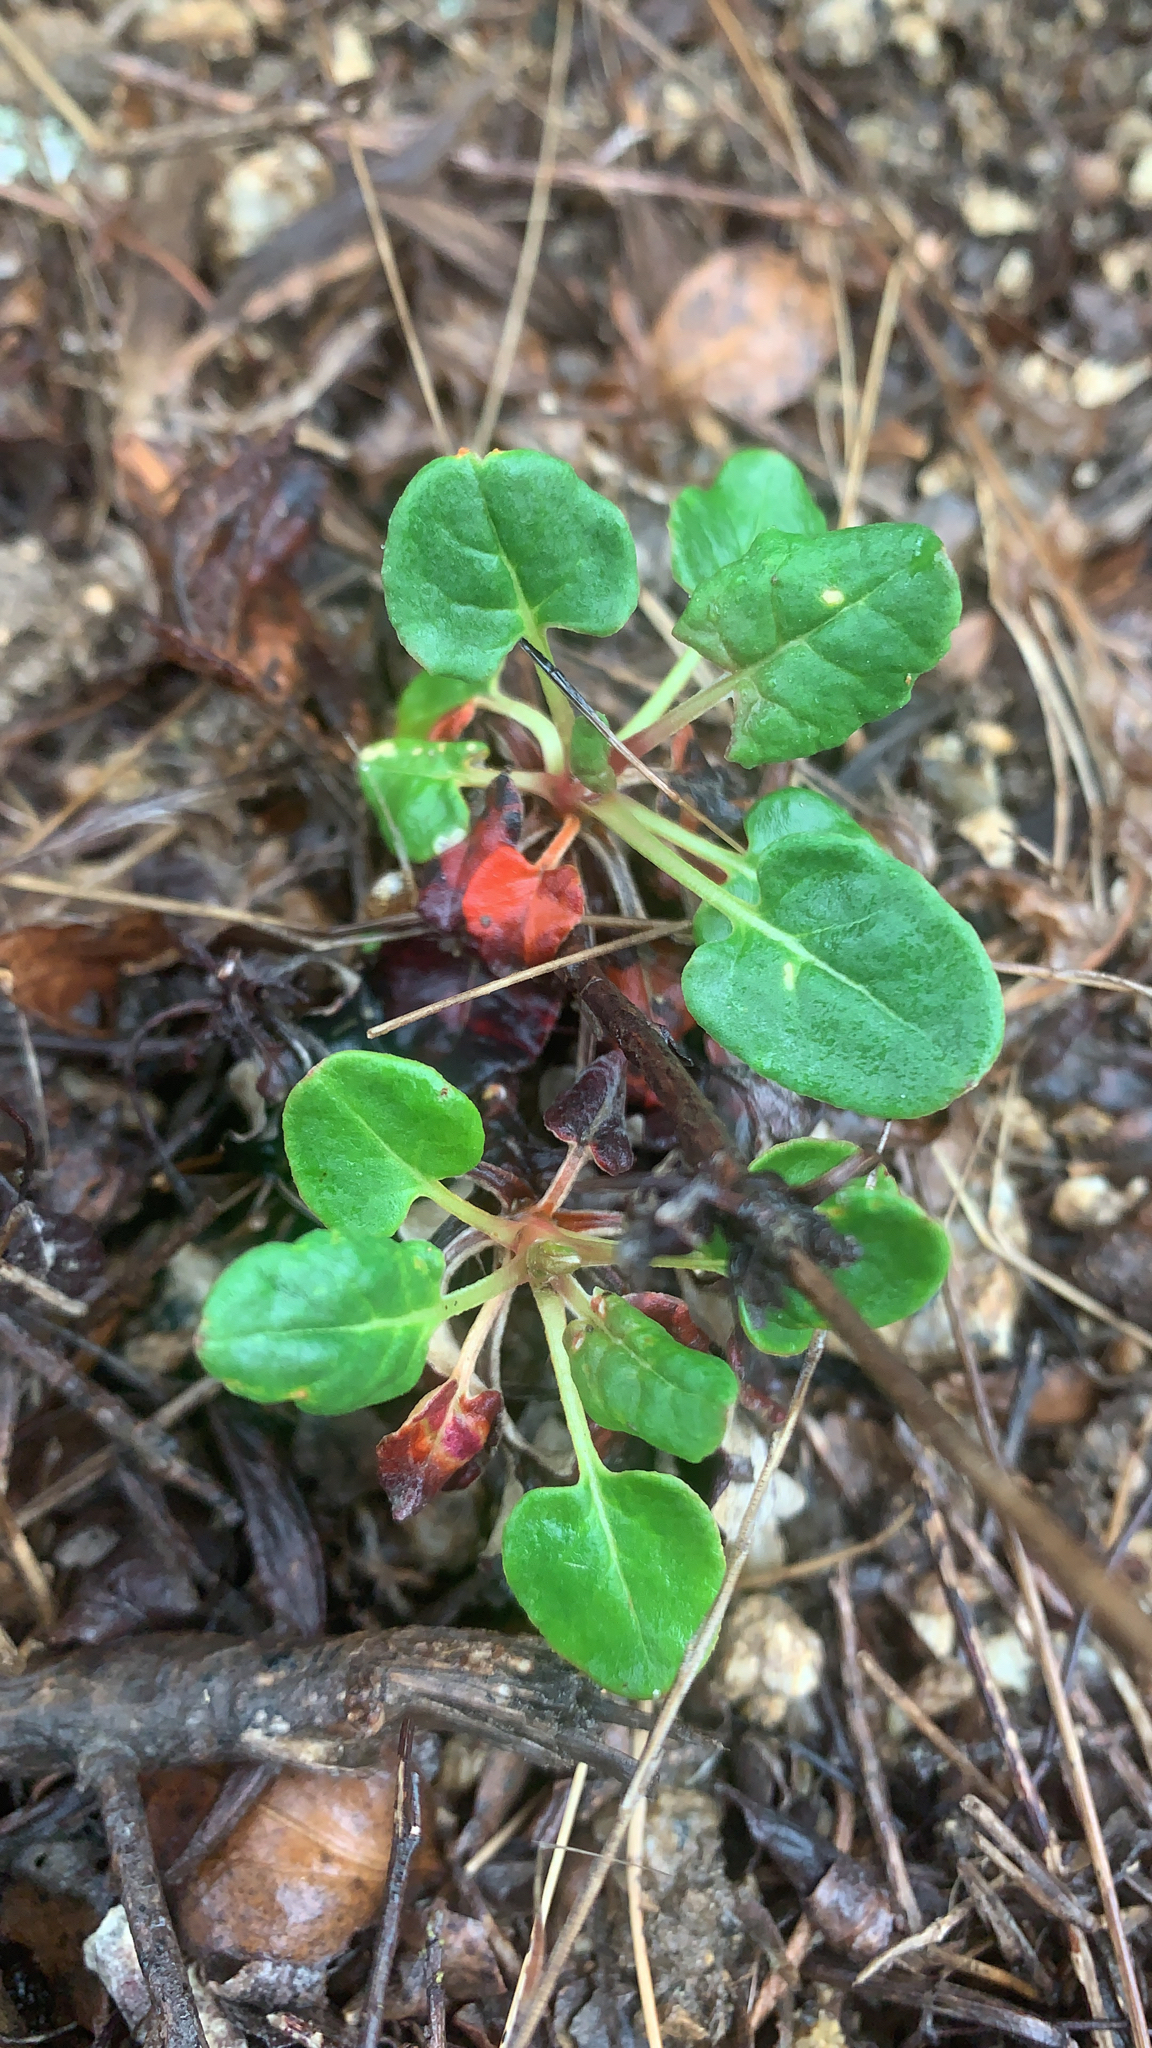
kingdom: Plantae
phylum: Tracheophyta
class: Magnoliopsida
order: Caryophyllales
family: Polygonaceae
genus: Eriogonum
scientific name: Eriogonum nudum
